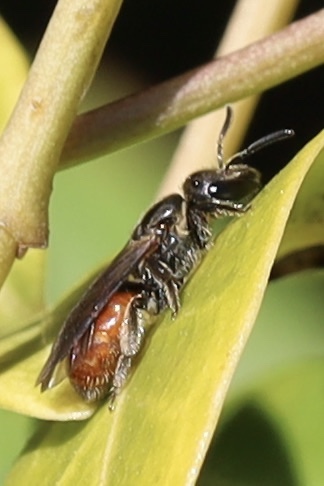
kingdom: Animalia
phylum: Arthropoda
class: Insecta
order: Hymenoptera
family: Halictidae
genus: Lasioglossum
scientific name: Lasioglossum ovaliceps
